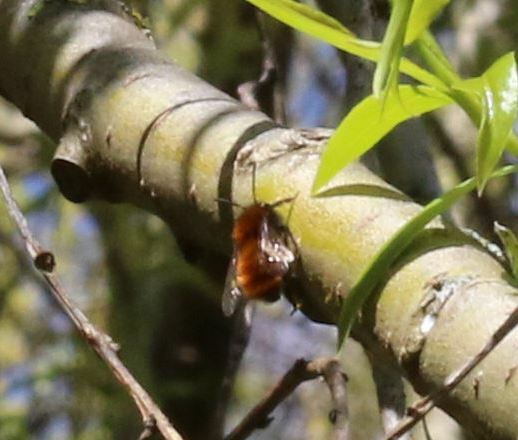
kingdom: Animalia
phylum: Arthropoda
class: Insecta
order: Hymenoptera
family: Andrenidae
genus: Andrena
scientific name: Andrena fulva
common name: Tawny mining bee
